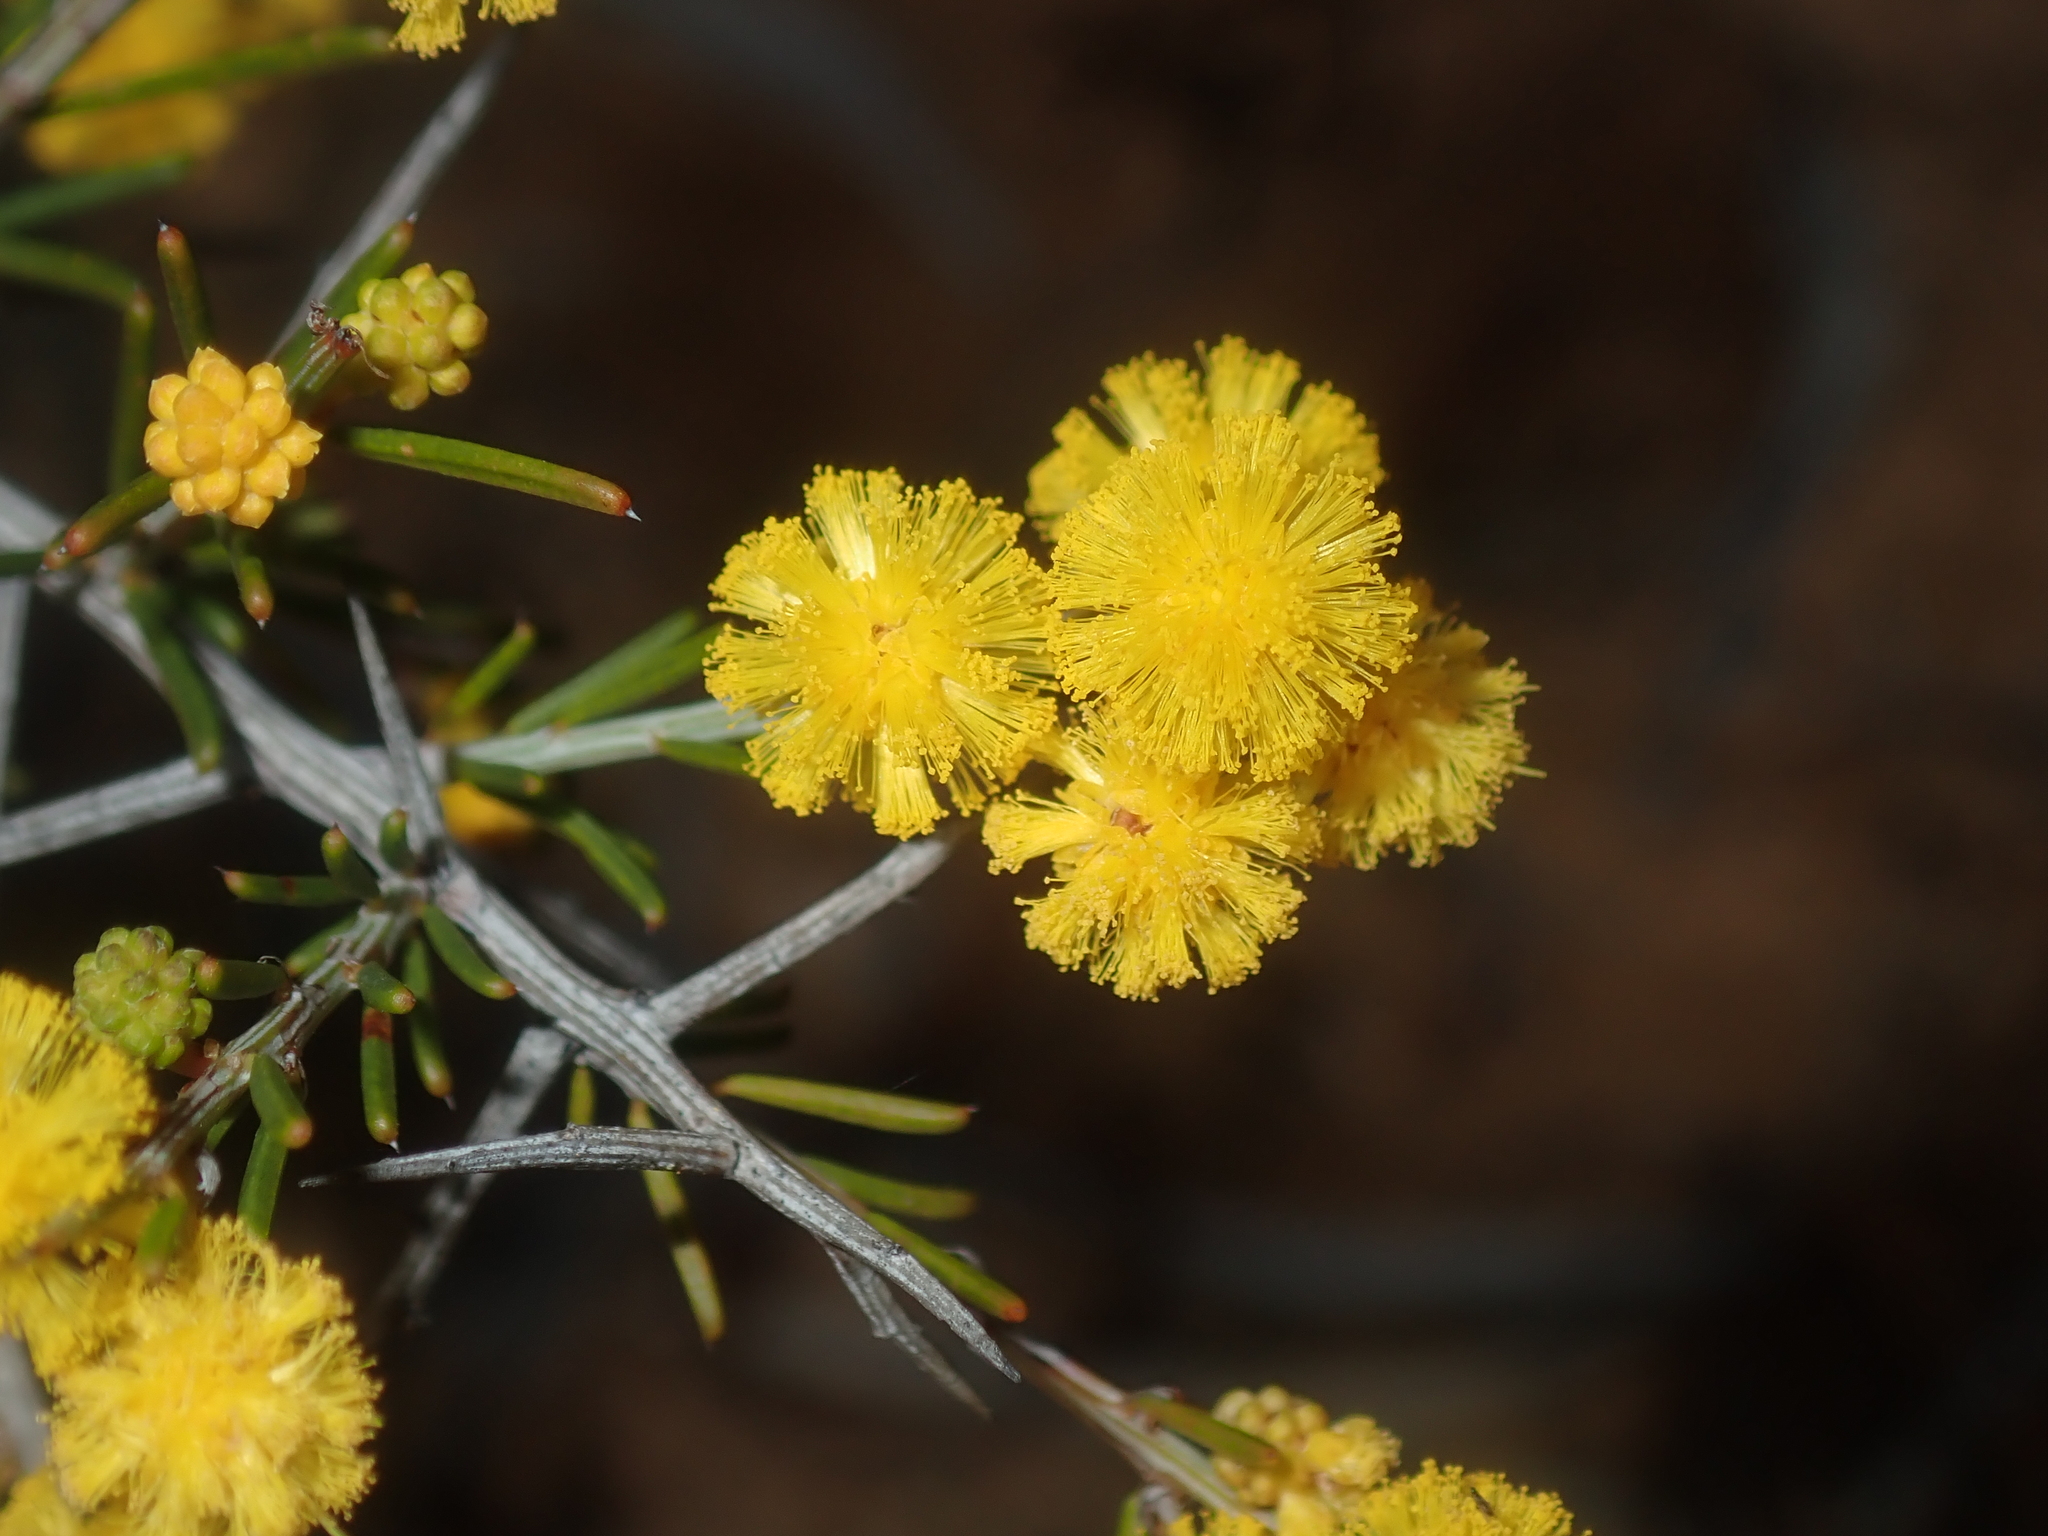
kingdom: Plantae
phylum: Tracheophyta
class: Magnoliopsida
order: Fabales
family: Fabaceae
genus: Acacia
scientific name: Acacia ulicina
